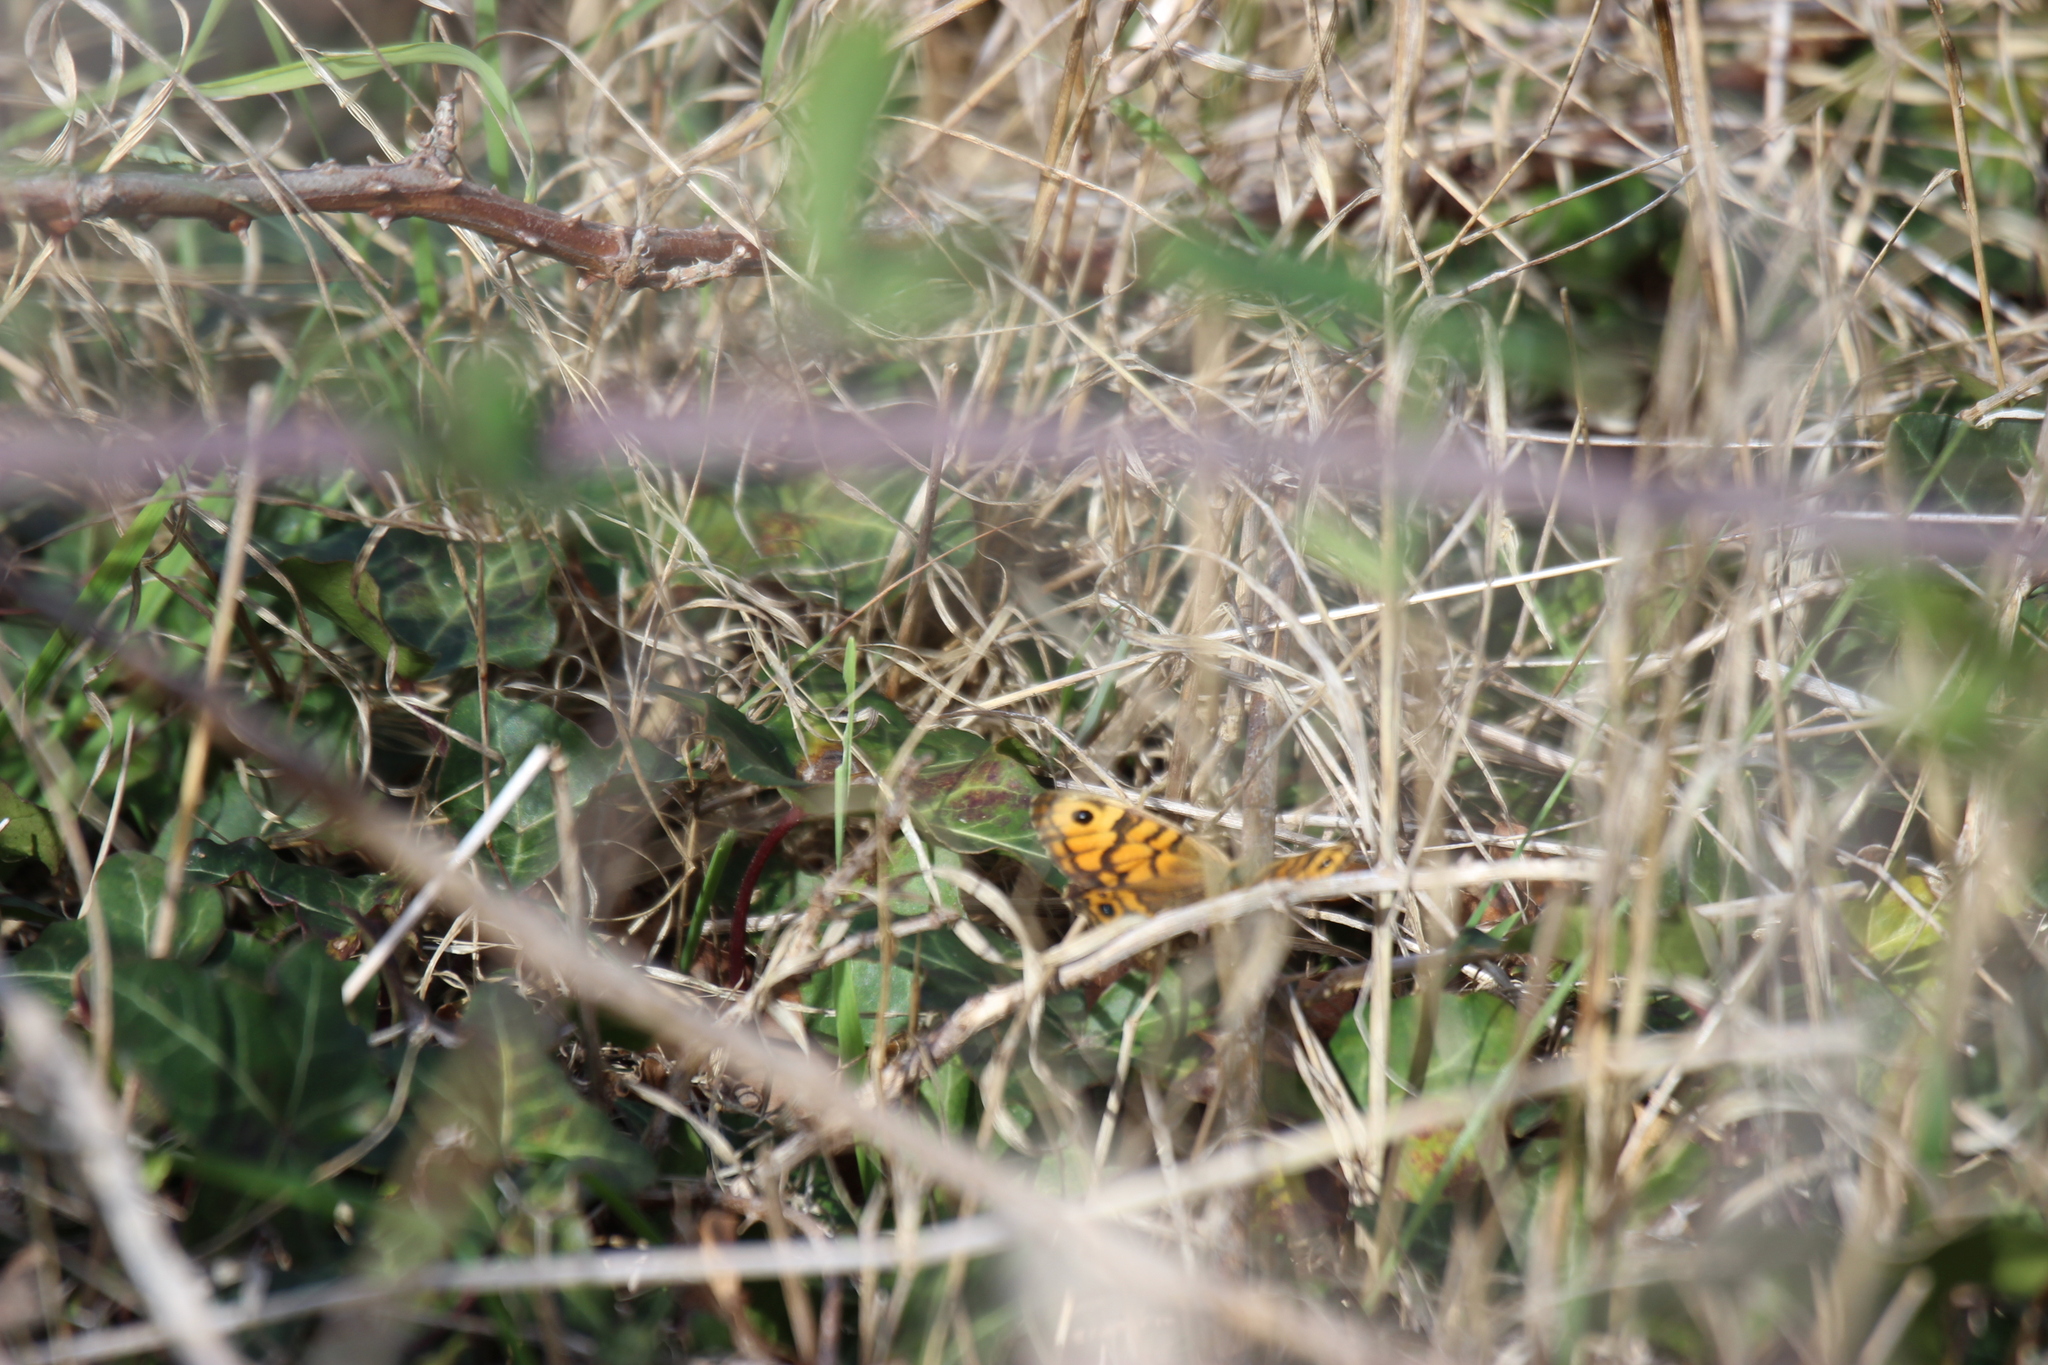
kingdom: Animalia
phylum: Arthropoda
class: Insecta
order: Lepidoptera
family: Nymphalidae
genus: Pararge
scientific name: Pararge Lasiommata megera
